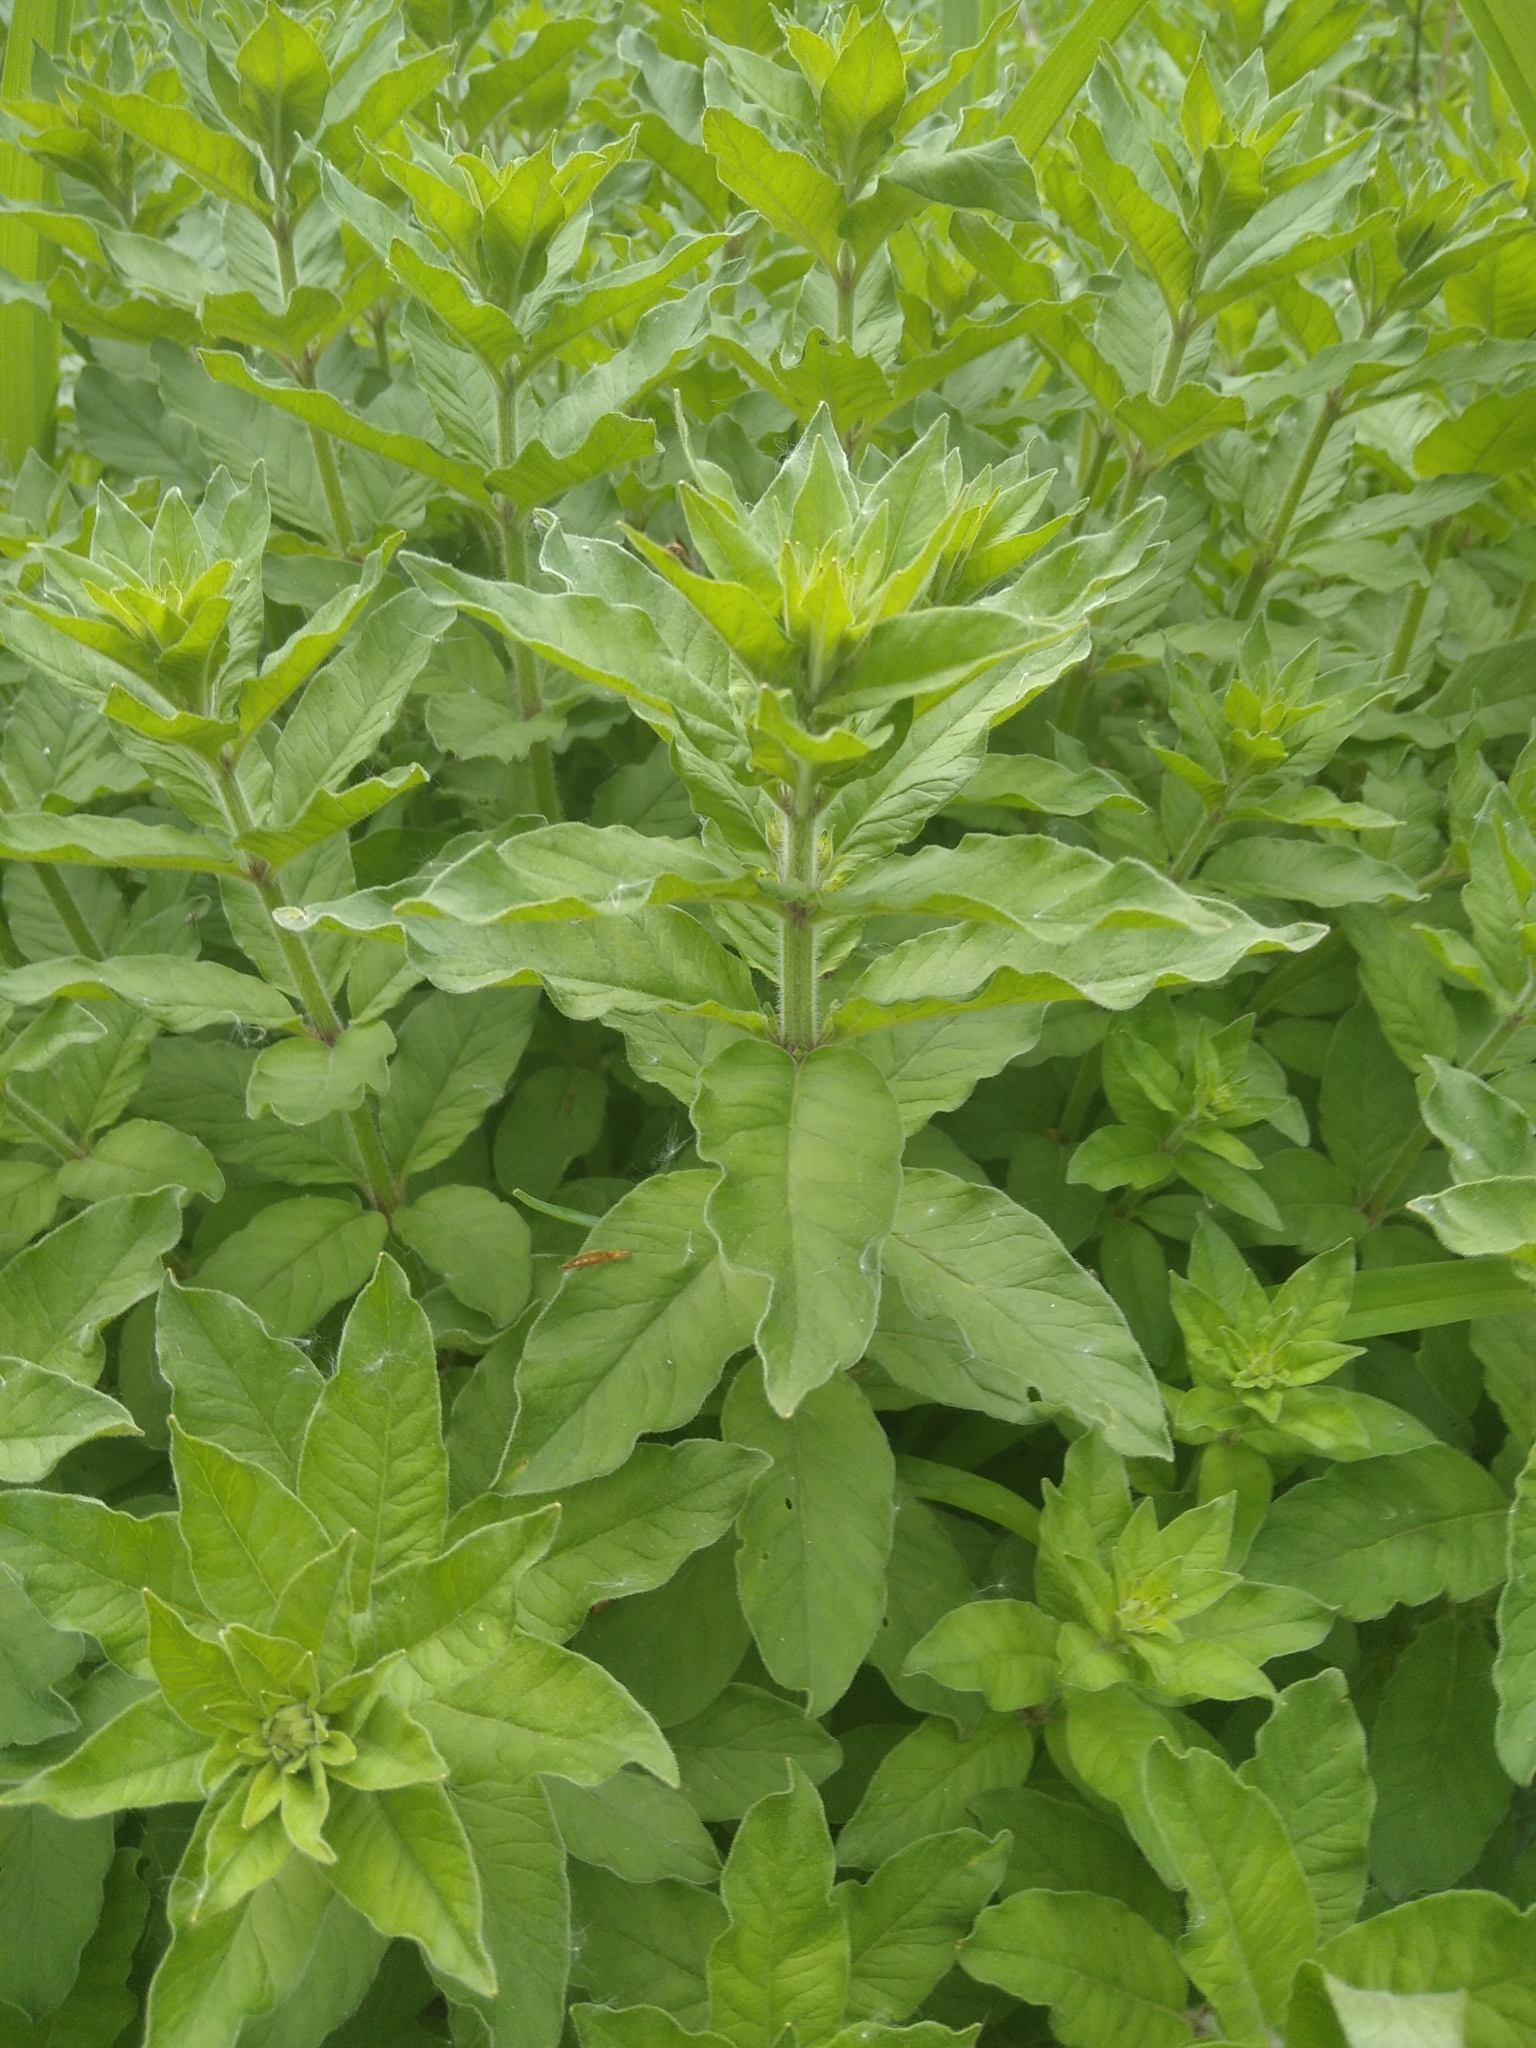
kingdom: Plantae
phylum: Tracheophyta
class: Magnoliopsida
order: Ericales
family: Primulaceae
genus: Lysimachia
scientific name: Lysimachia punctata
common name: Dotted loosestrife
